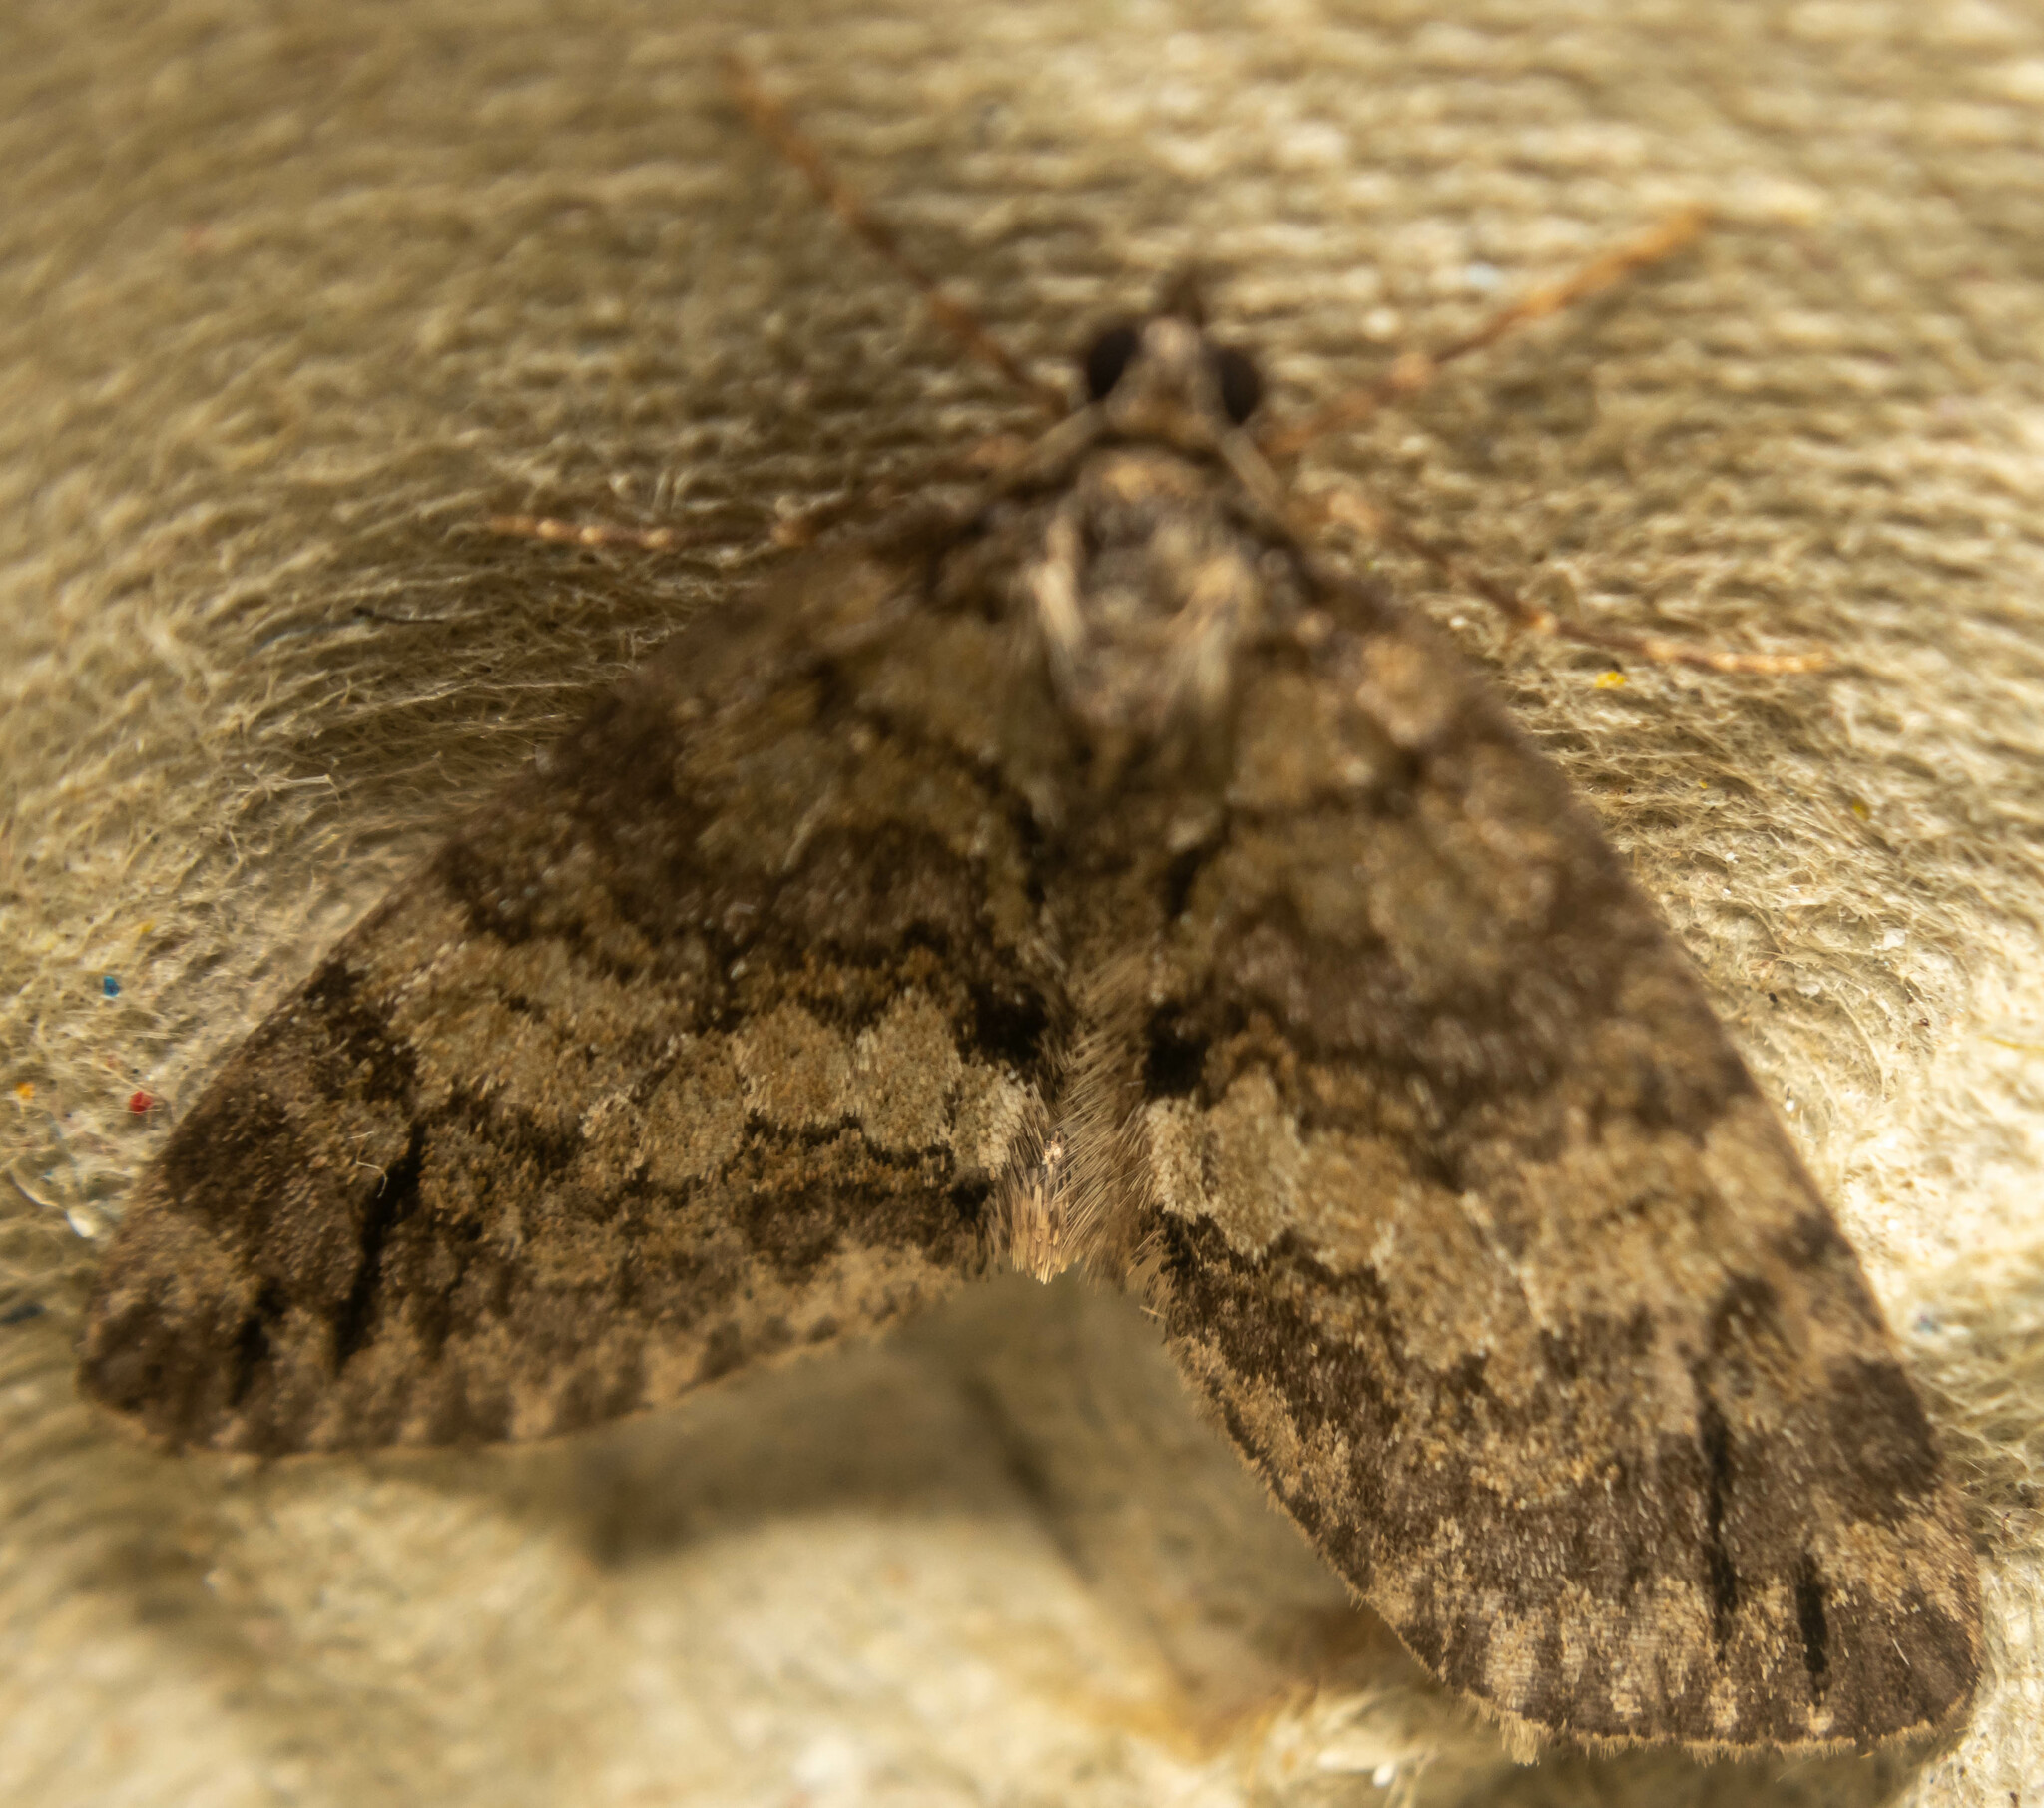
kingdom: Animalia
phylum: Arthropoda
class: Insecta
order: Lepidoptera
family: Geometridae
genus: Hydriomena
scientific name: Hydriomena impluviata
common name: May highflyer
